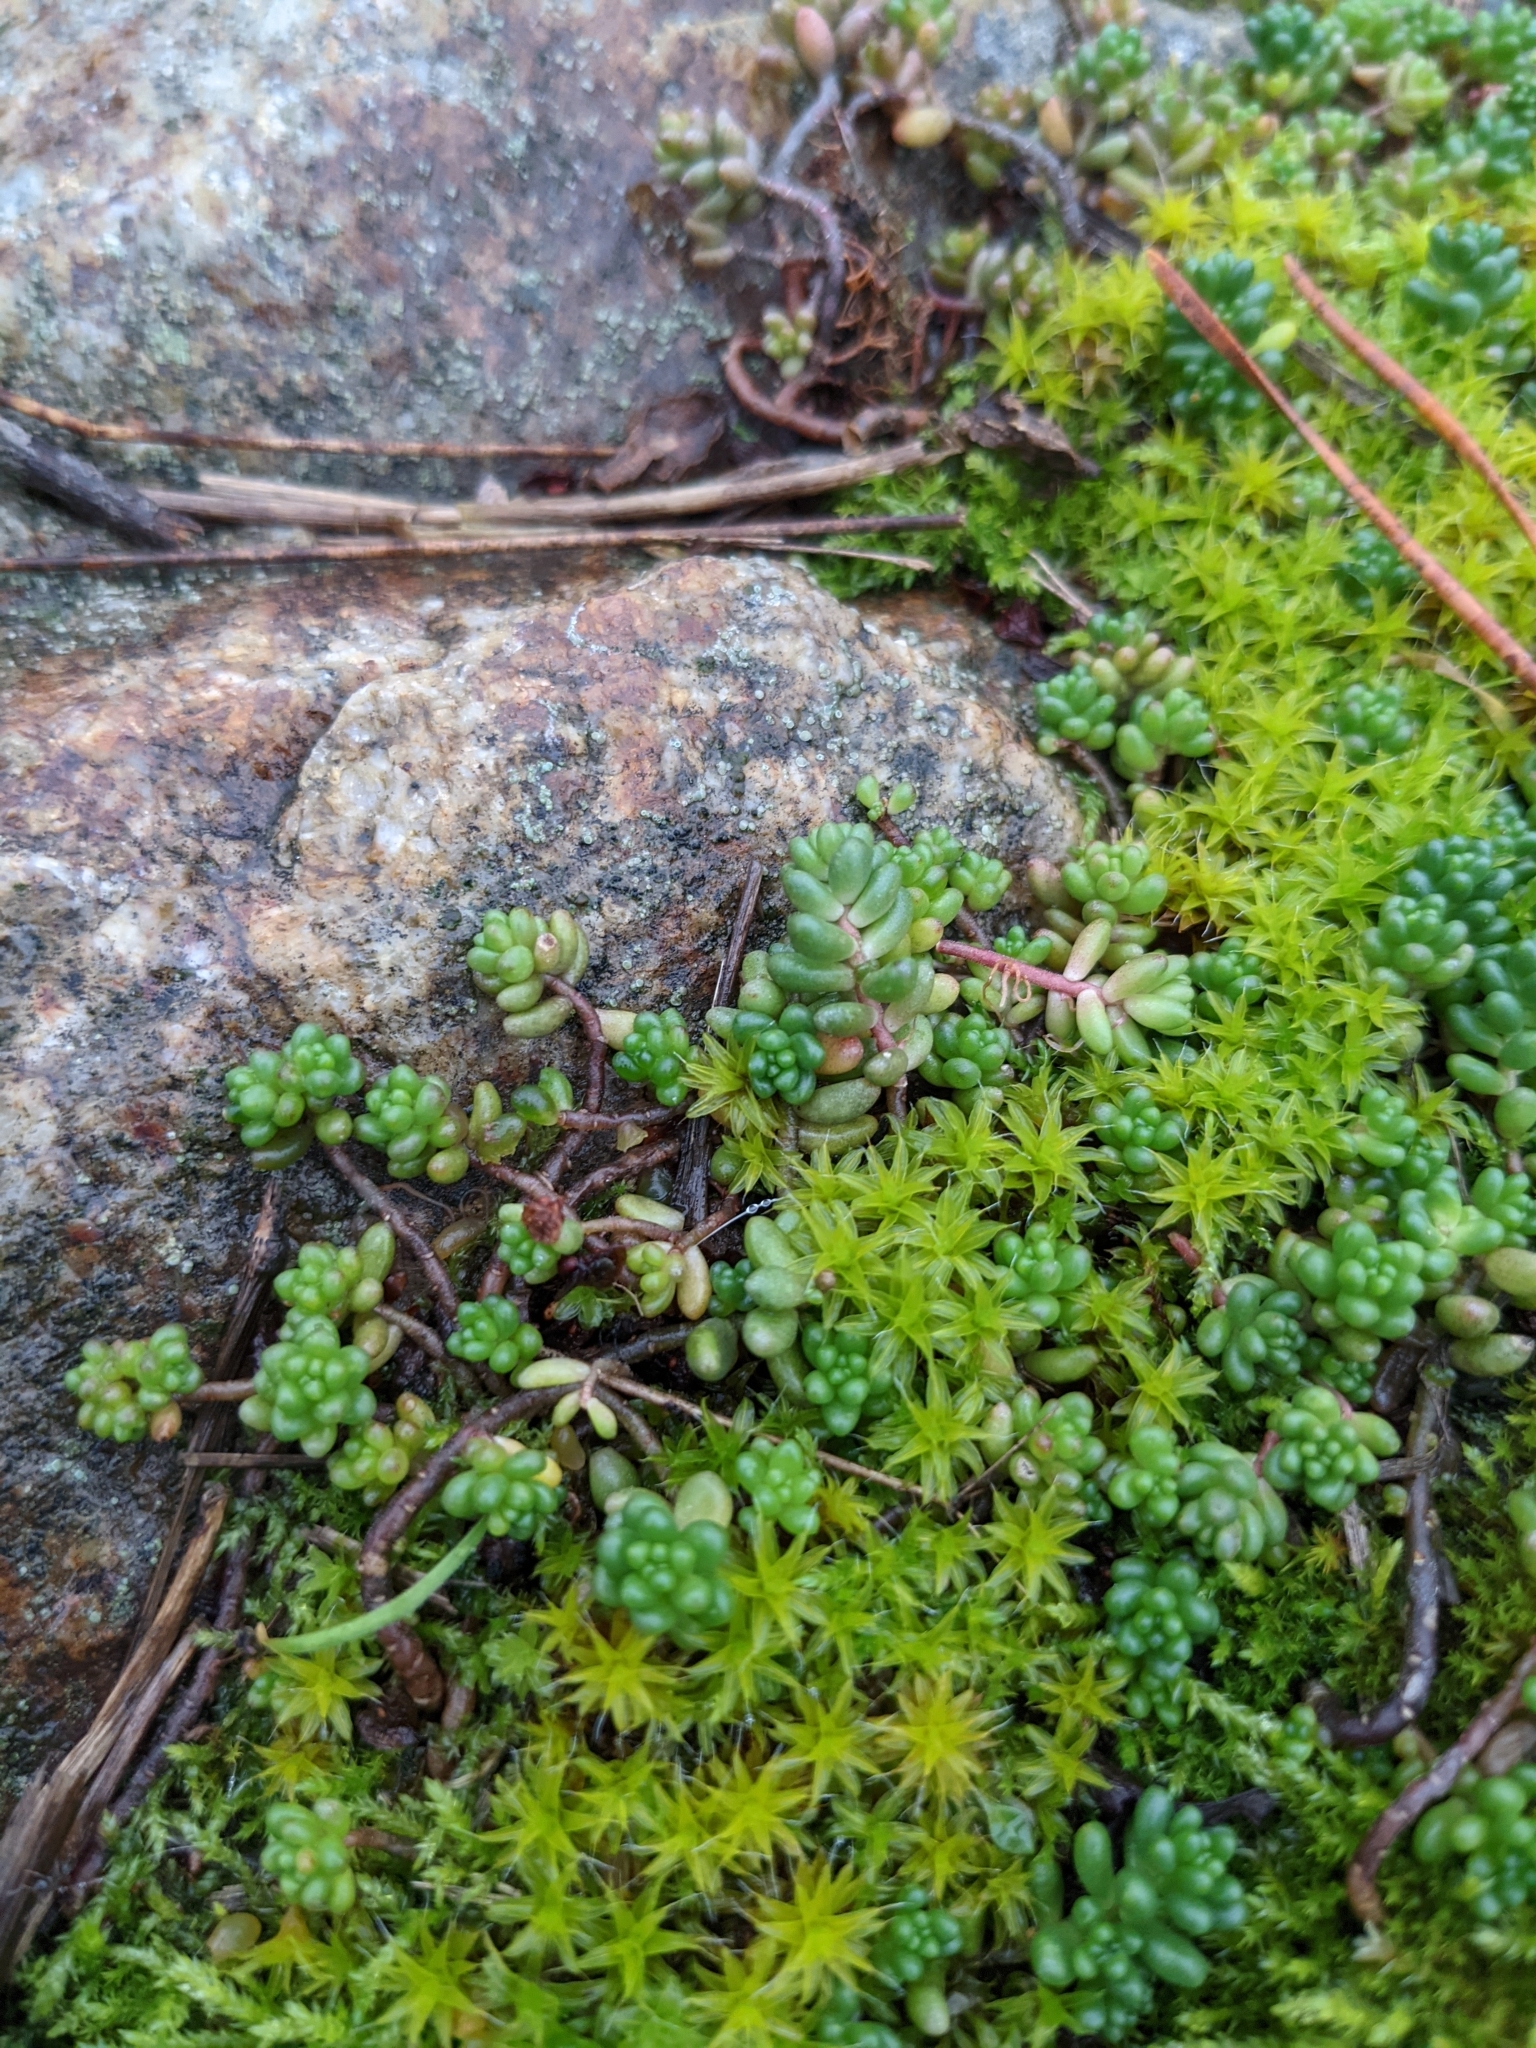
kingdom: Plantae
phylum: Tracheophyta
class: Magnoliopsida
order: Saxifragales
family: Crassulaceae
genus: Sedum
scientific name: Sedum album
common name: White stonecrop
